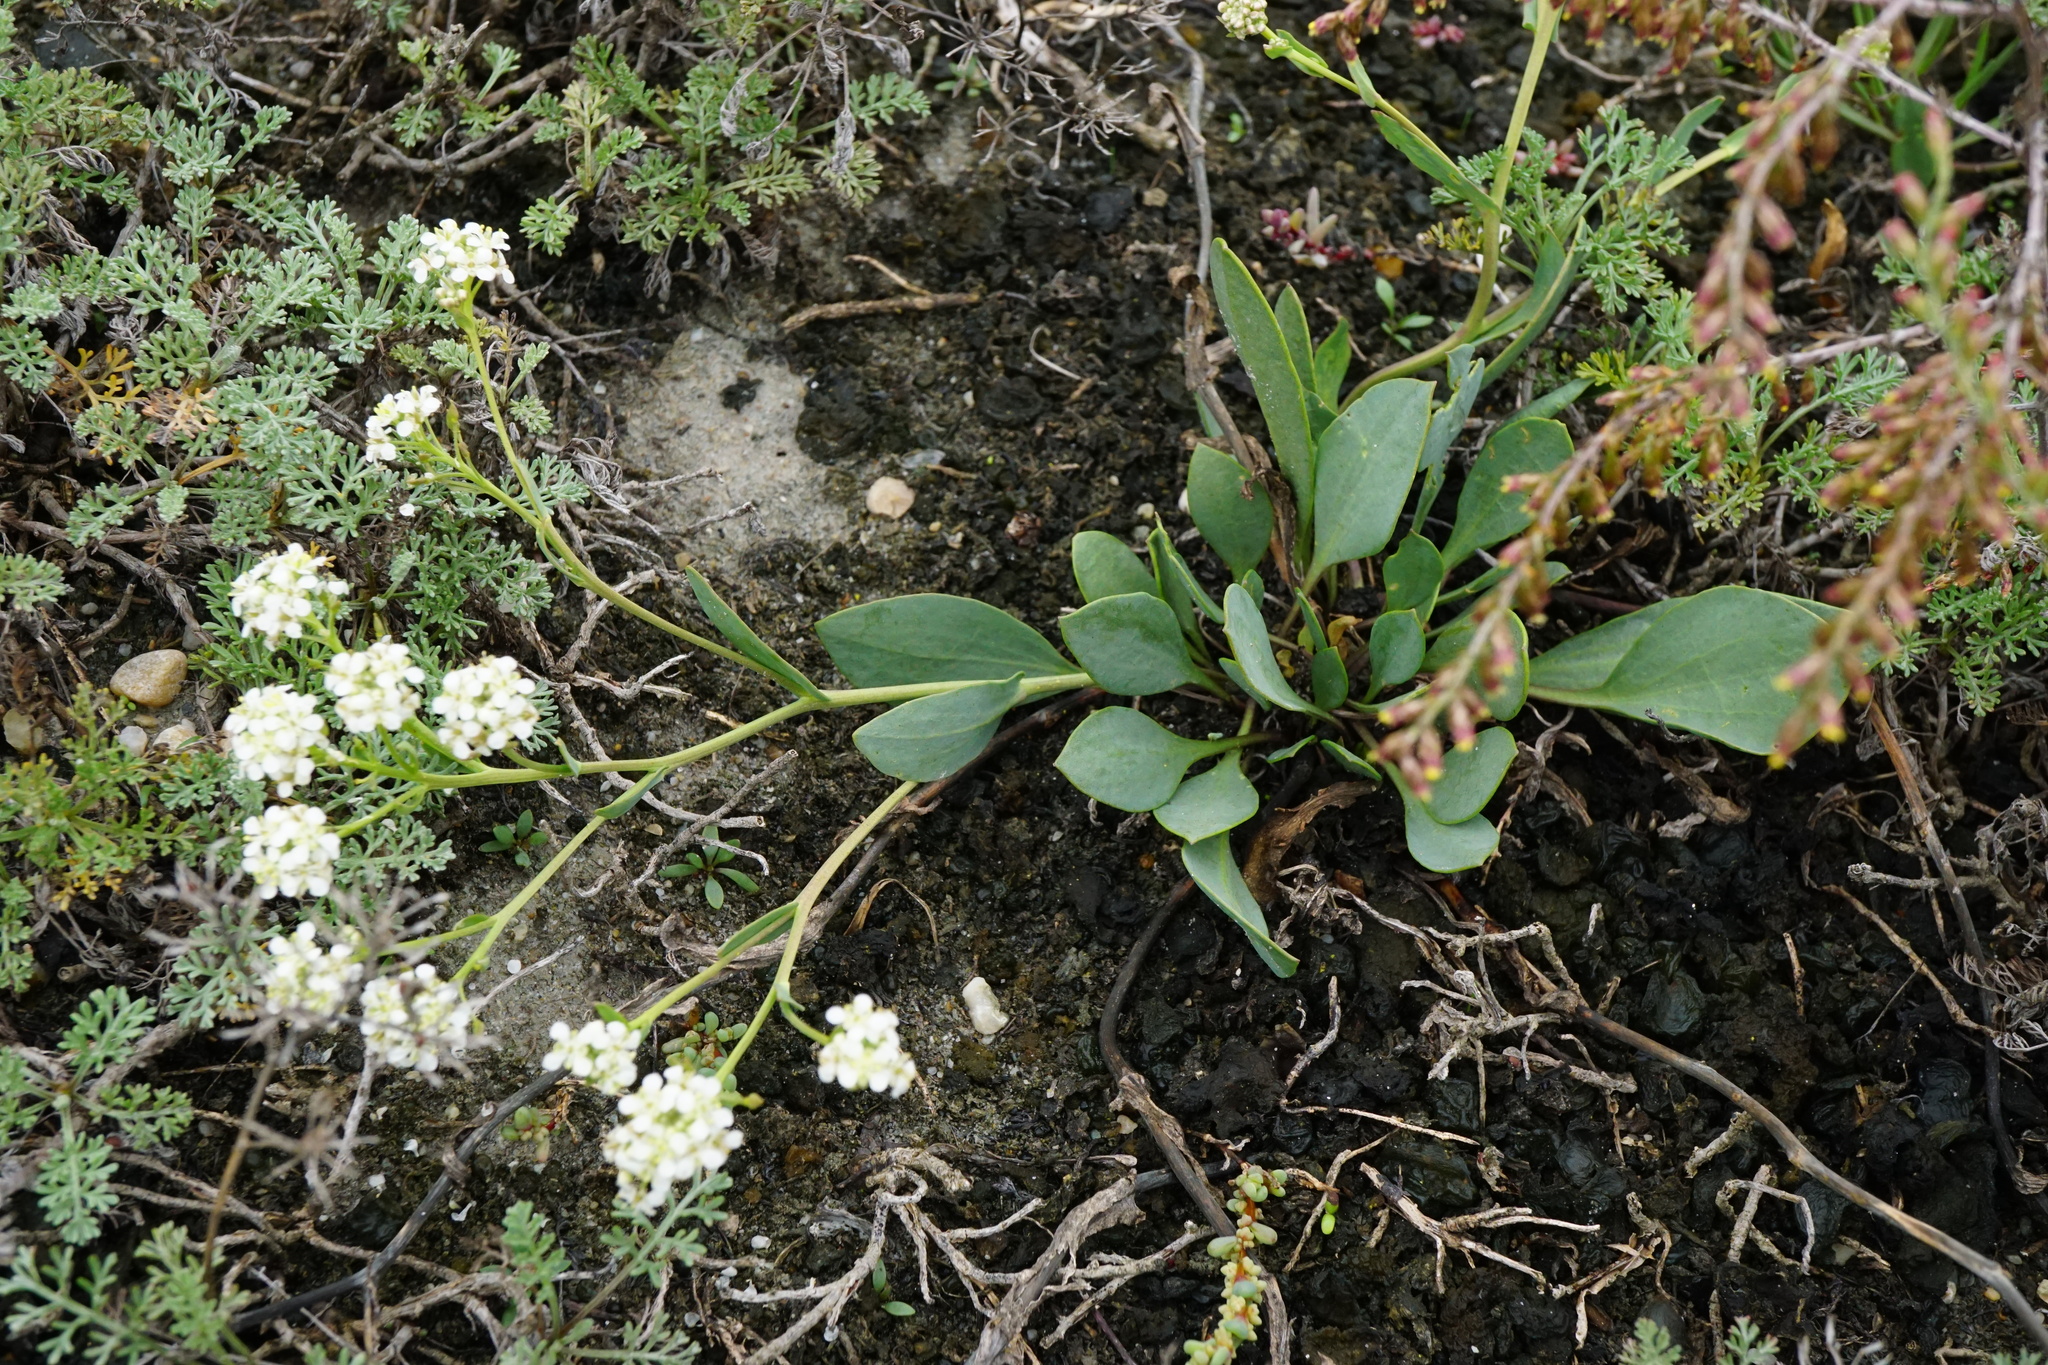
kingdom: Plantae
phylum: Tracheophyta
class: Magnoliopsida
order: Brassicales
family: Brassicaceae
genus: Lepidium
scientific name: Lepidium cartilagineum
